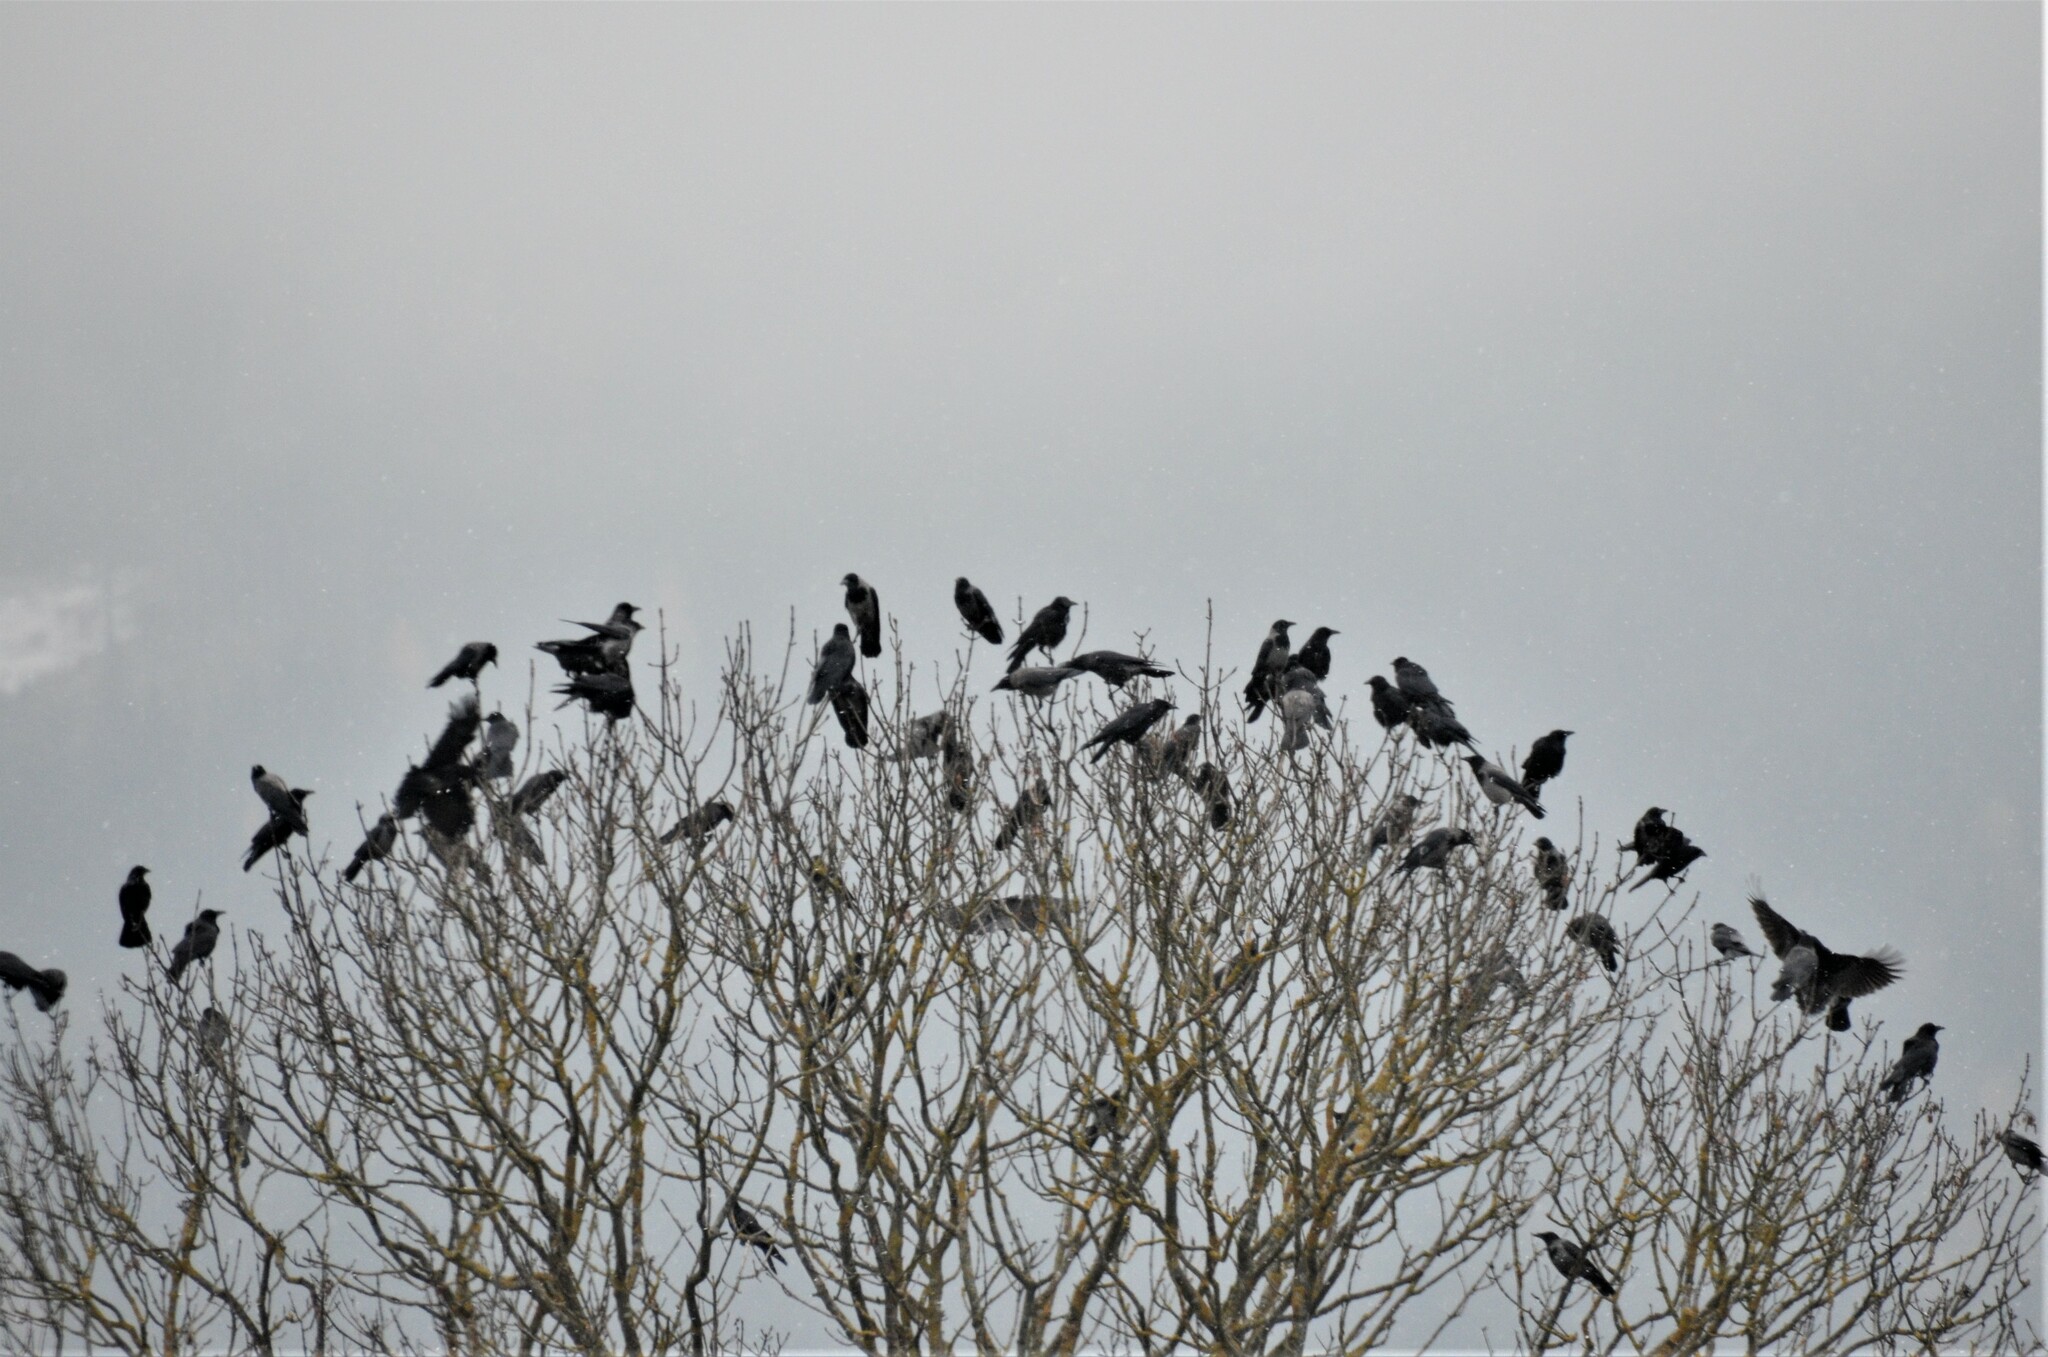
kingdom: Animalia
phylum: Chordata
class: Aves
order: Passeriformes
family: Corvidae
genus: Corvus
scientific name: Corvus cornix
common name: Hooded crow
